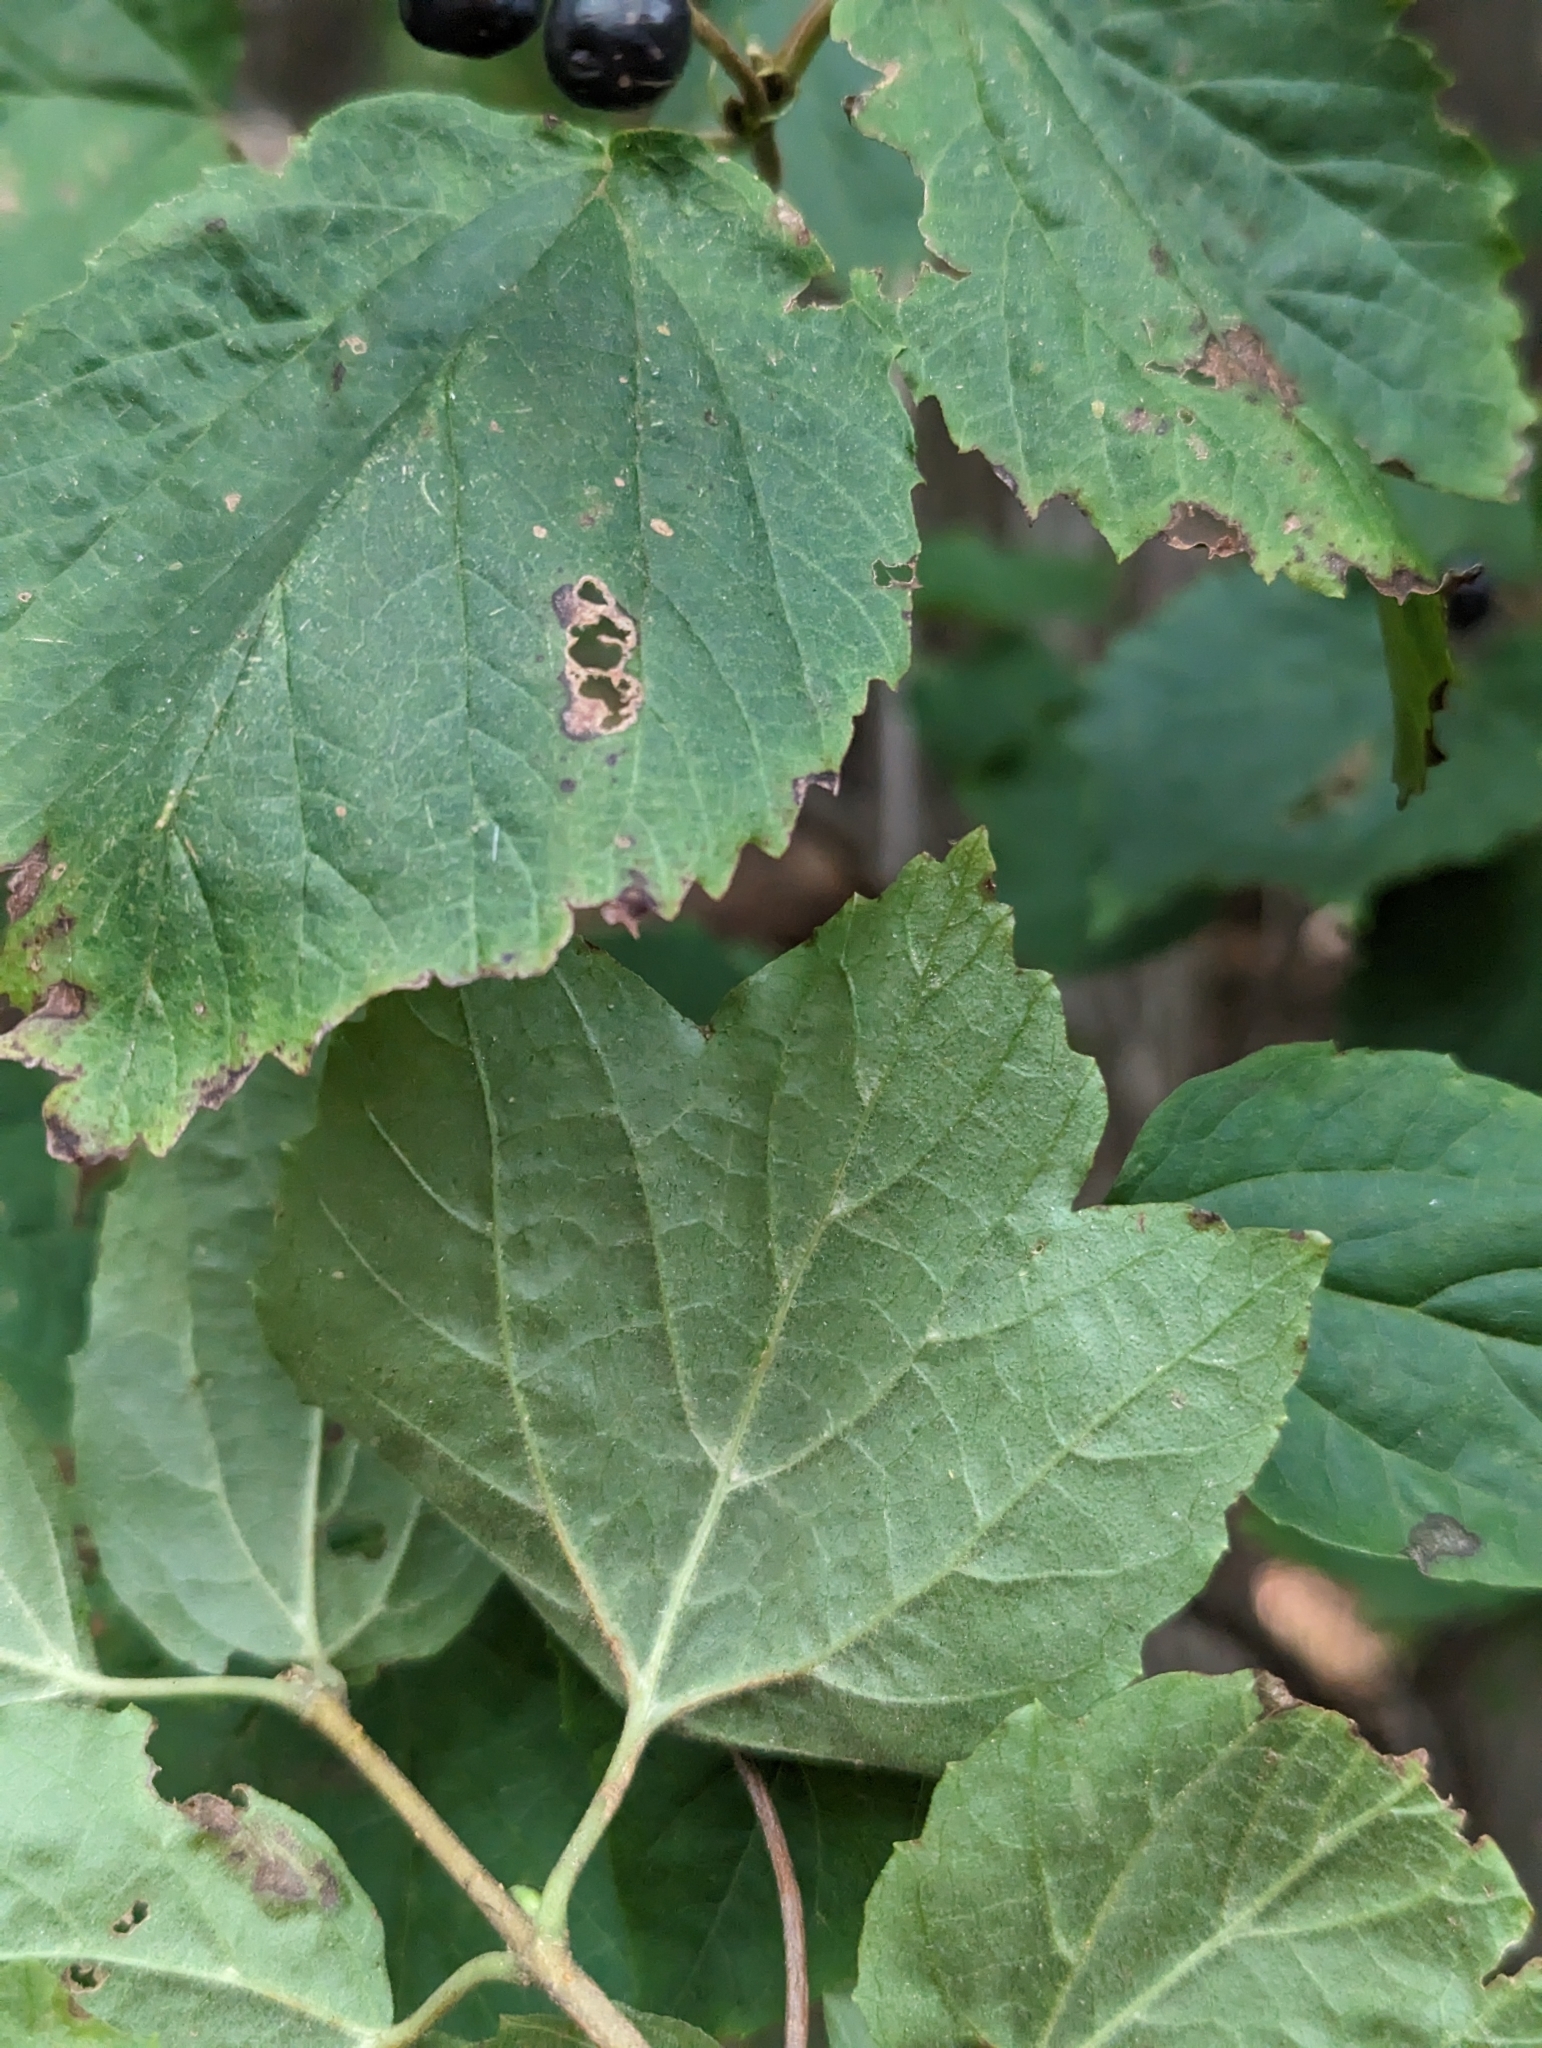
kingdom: Plantae
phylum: Tracheophyta
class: Magnoliopsida
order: Dipsacales
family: Viburnaceae
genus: Viburnum
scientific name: Viburnum acerifolium
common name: Dockmackie
